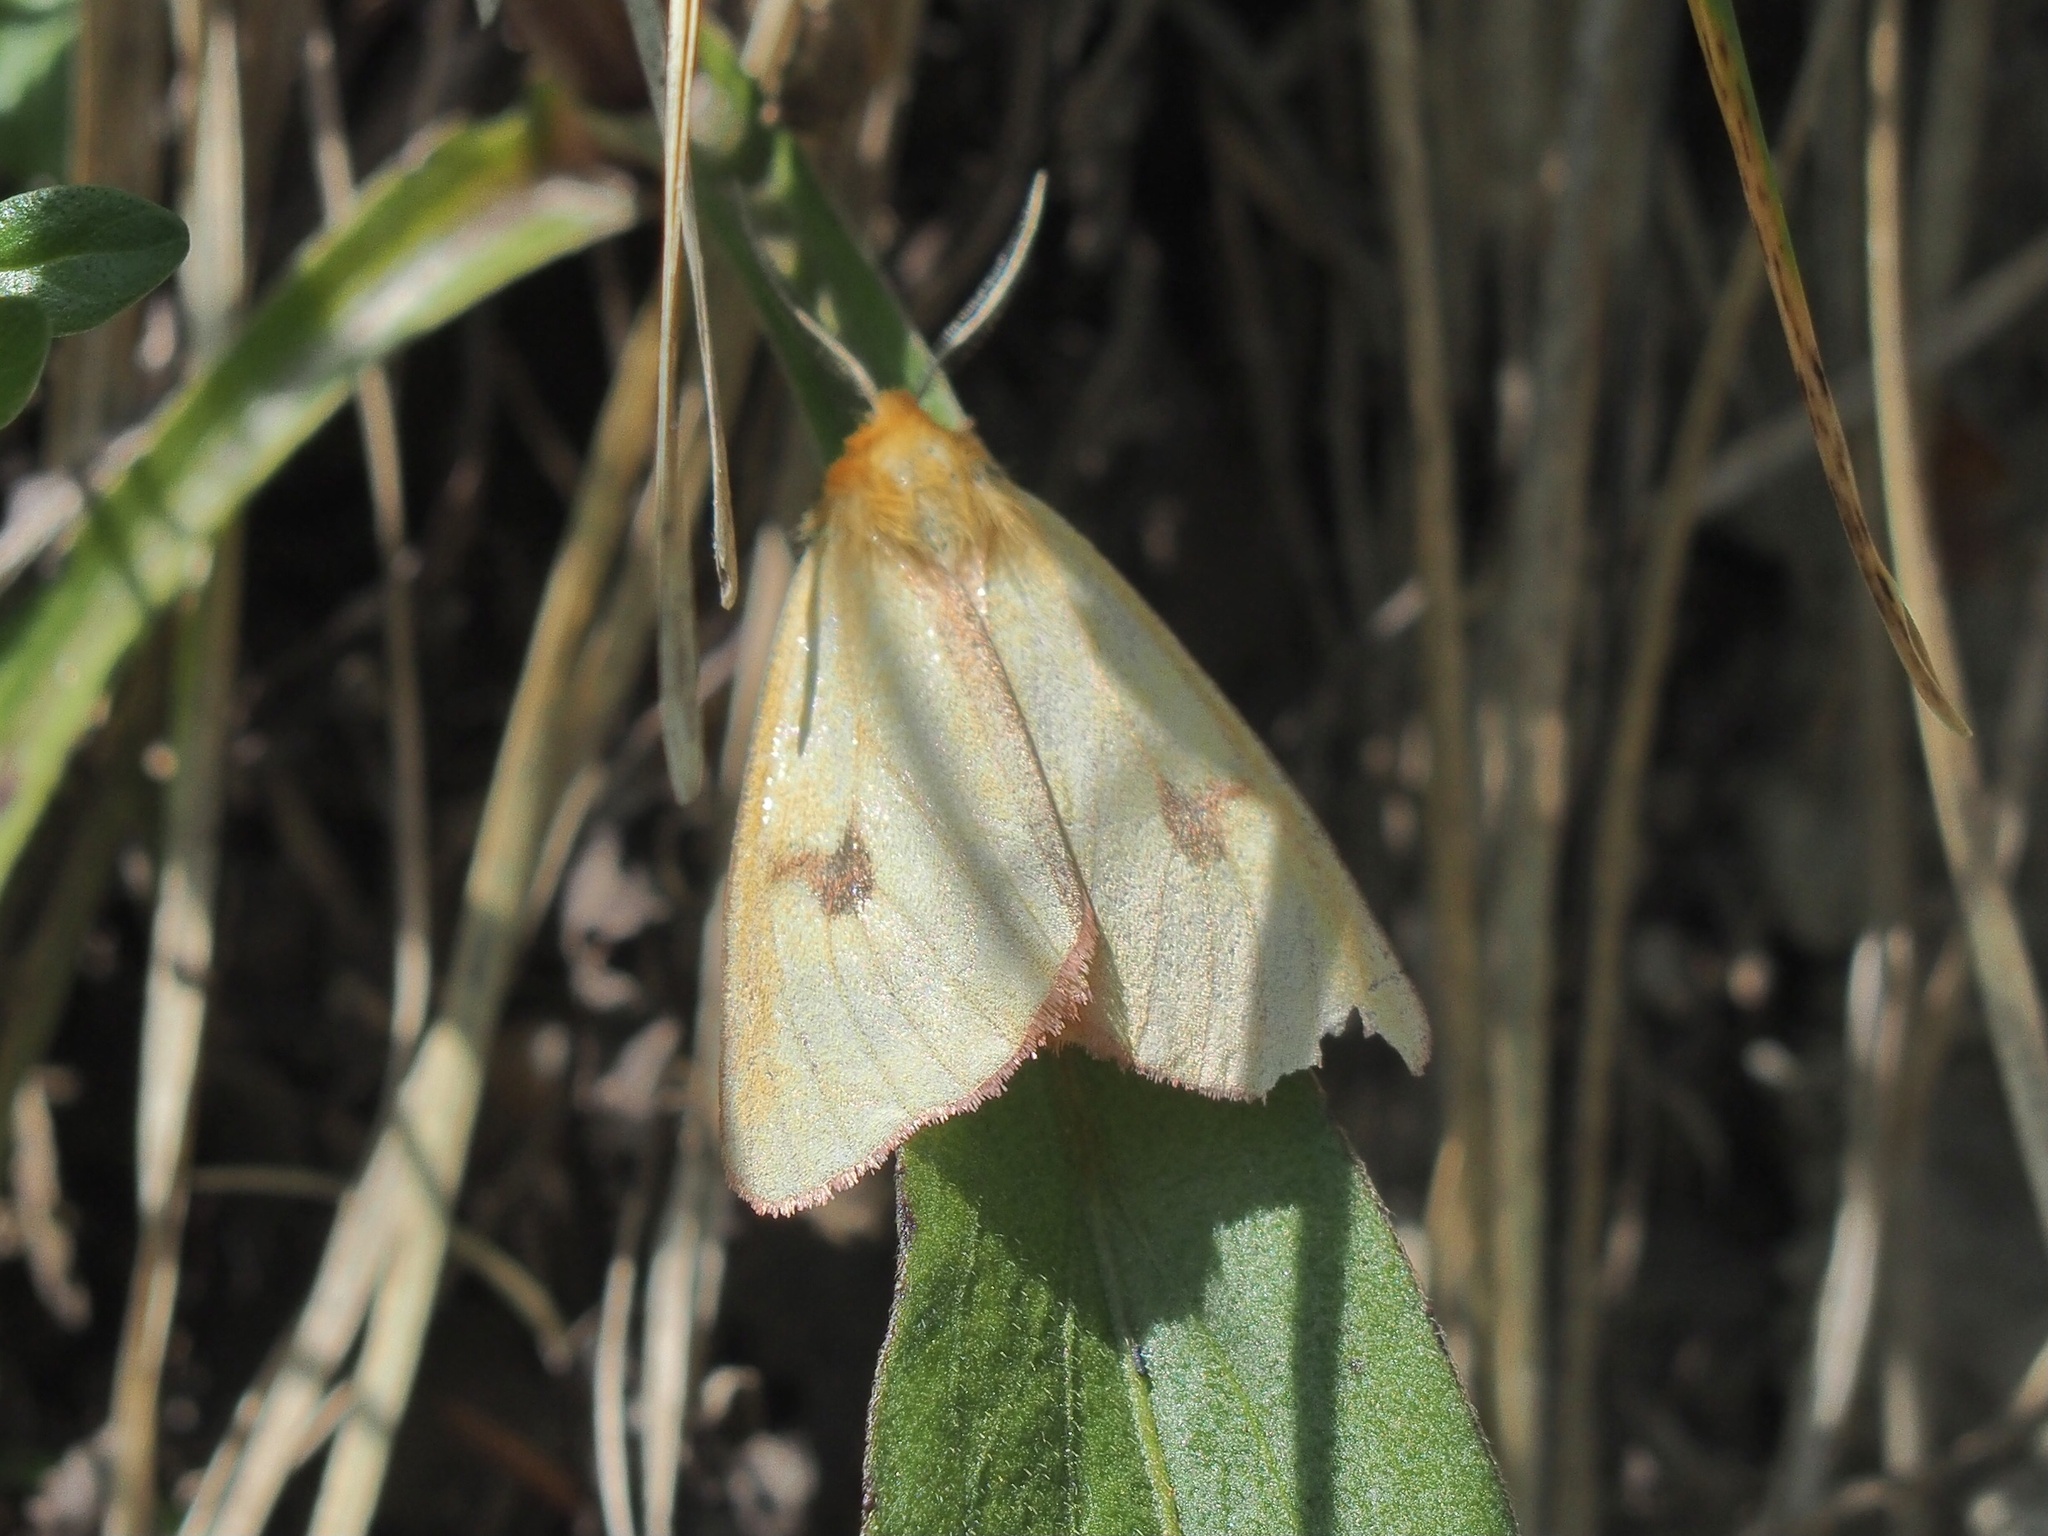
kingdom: Animalia
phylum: Arthropoda
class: Insecta
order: Lepidoptera
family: Erebidae
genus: Diacrisia
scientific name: Diacrisia sannio
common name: Clouded buff
